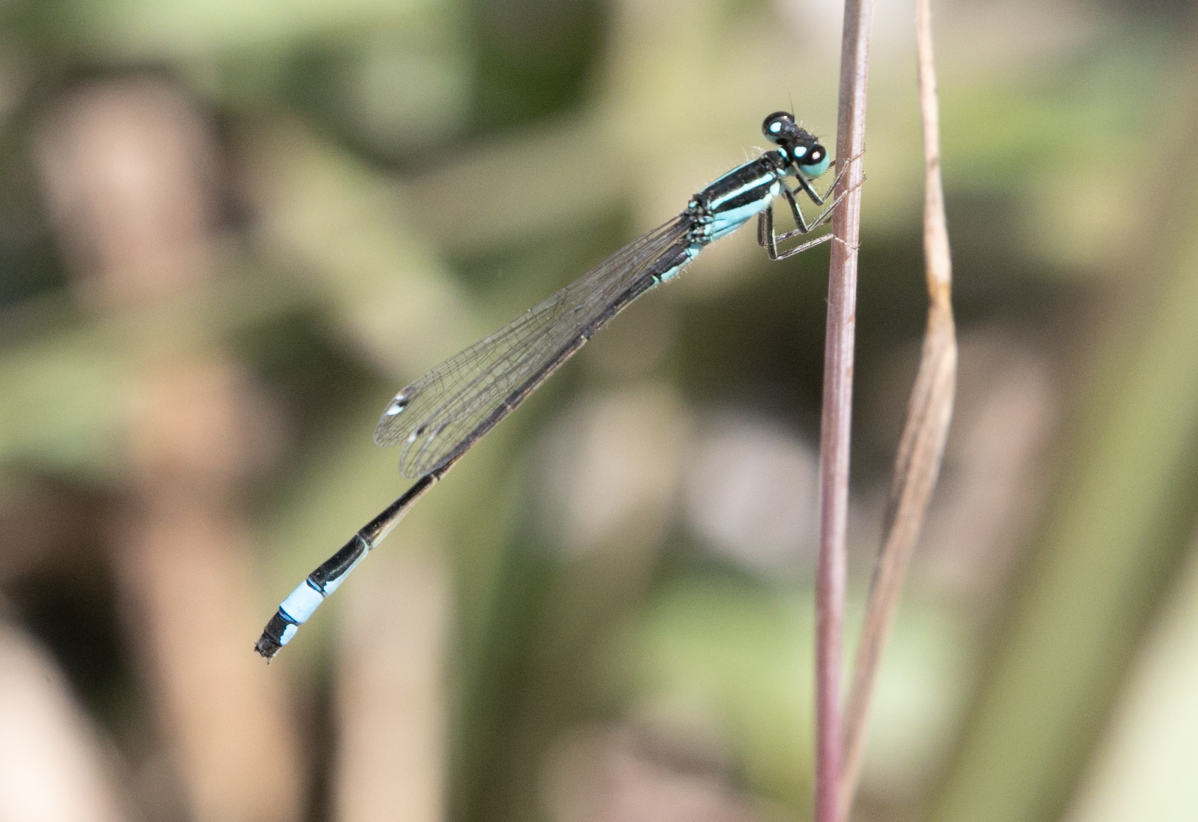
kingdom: Animalia
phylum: Arthropoda
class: Insecta
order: Odonata
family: Platycnemididae
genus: Platycnemis
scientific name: Platycnemis pennipes
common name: White-legged damselfly
